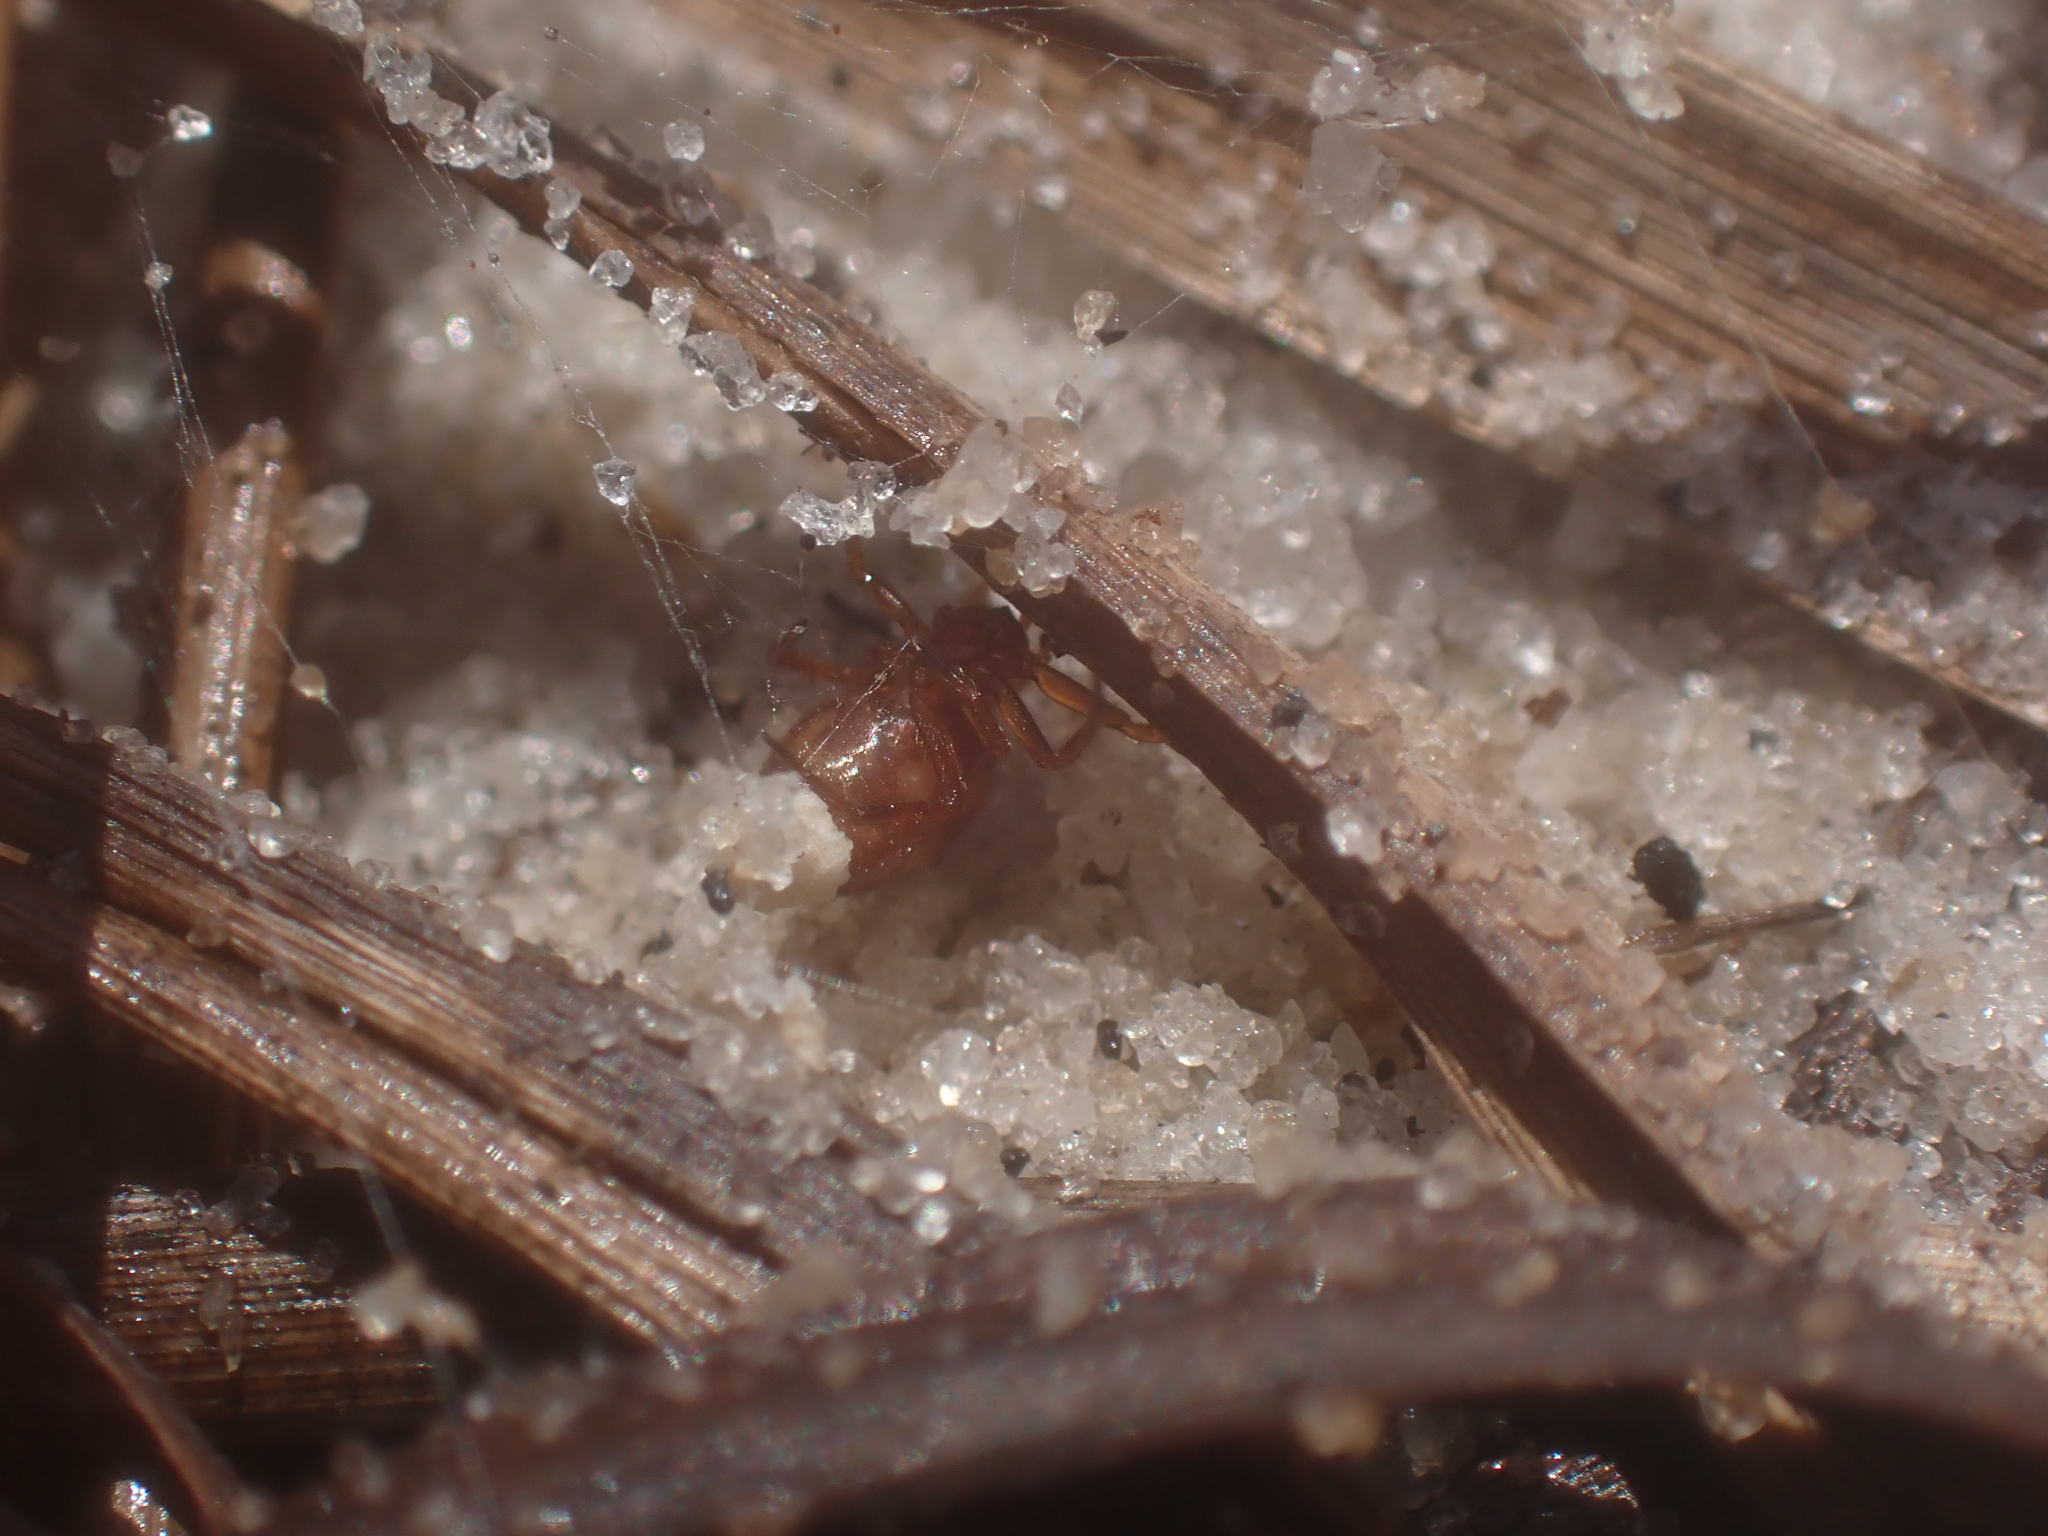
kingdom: Animalia
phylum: Arthropoda
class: Arachnida
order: Araneae
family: Theridiidae
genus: Steatoda
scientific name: Steatoda erigoniformis
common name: Cobweb spiders
